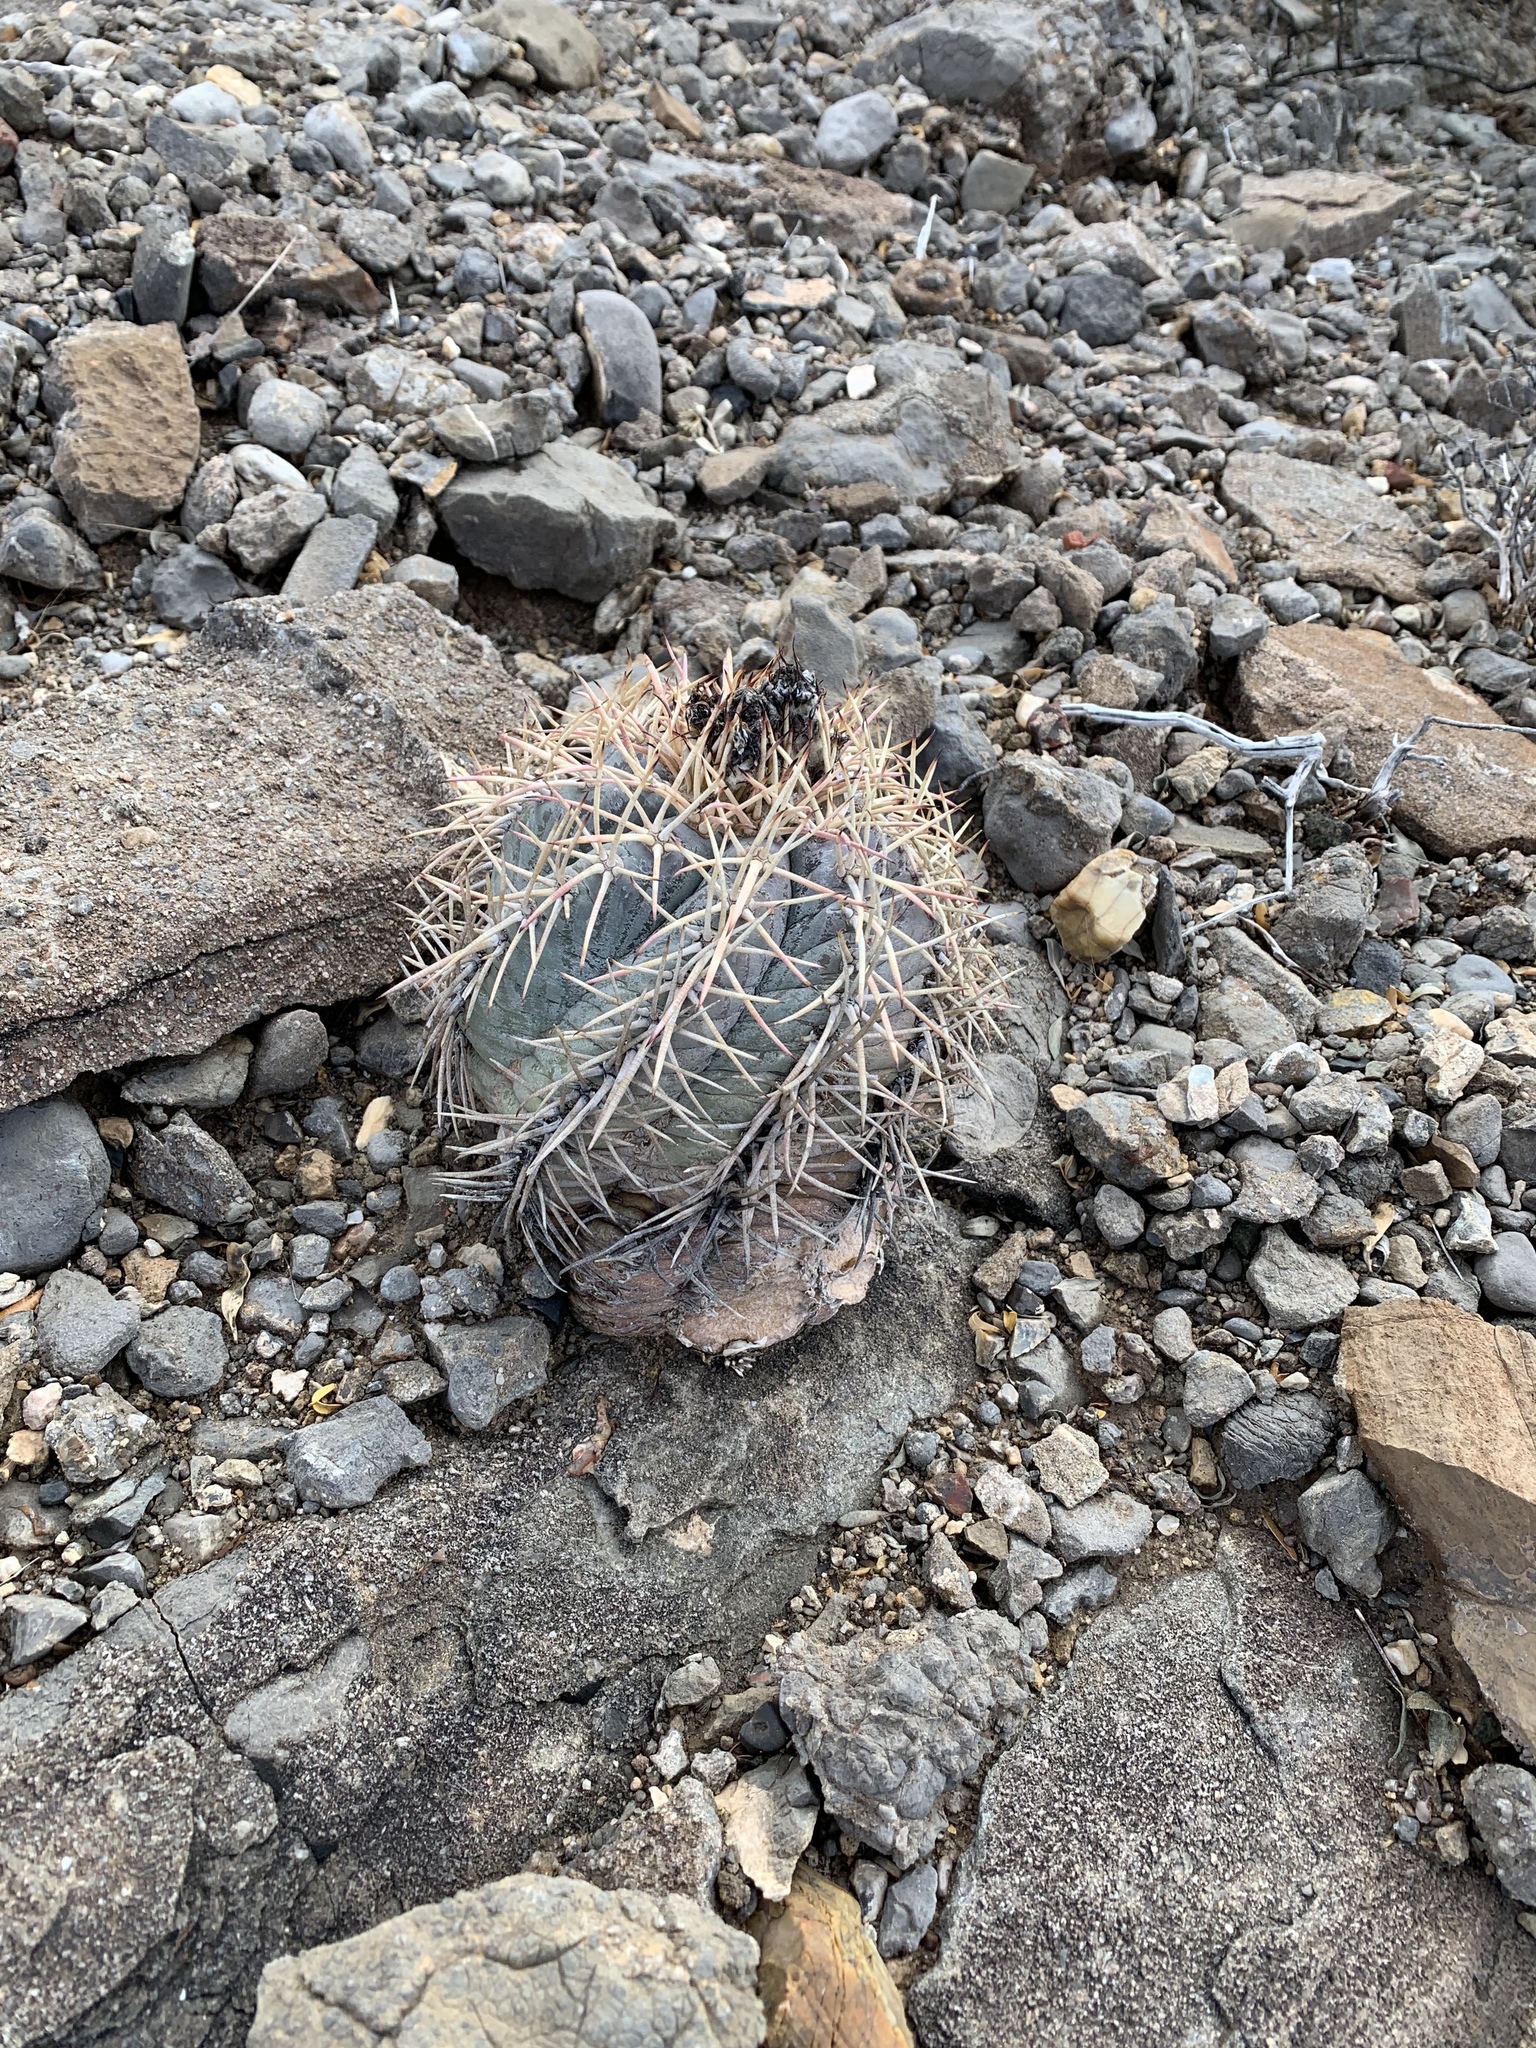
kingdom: Plantae
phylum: Tracheophyta
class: Magnoliopsida
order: Caryophyllales
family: Cactaceae
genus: Echinocactus
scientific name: Echinocactus horizonthalonius
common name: Devilshead
